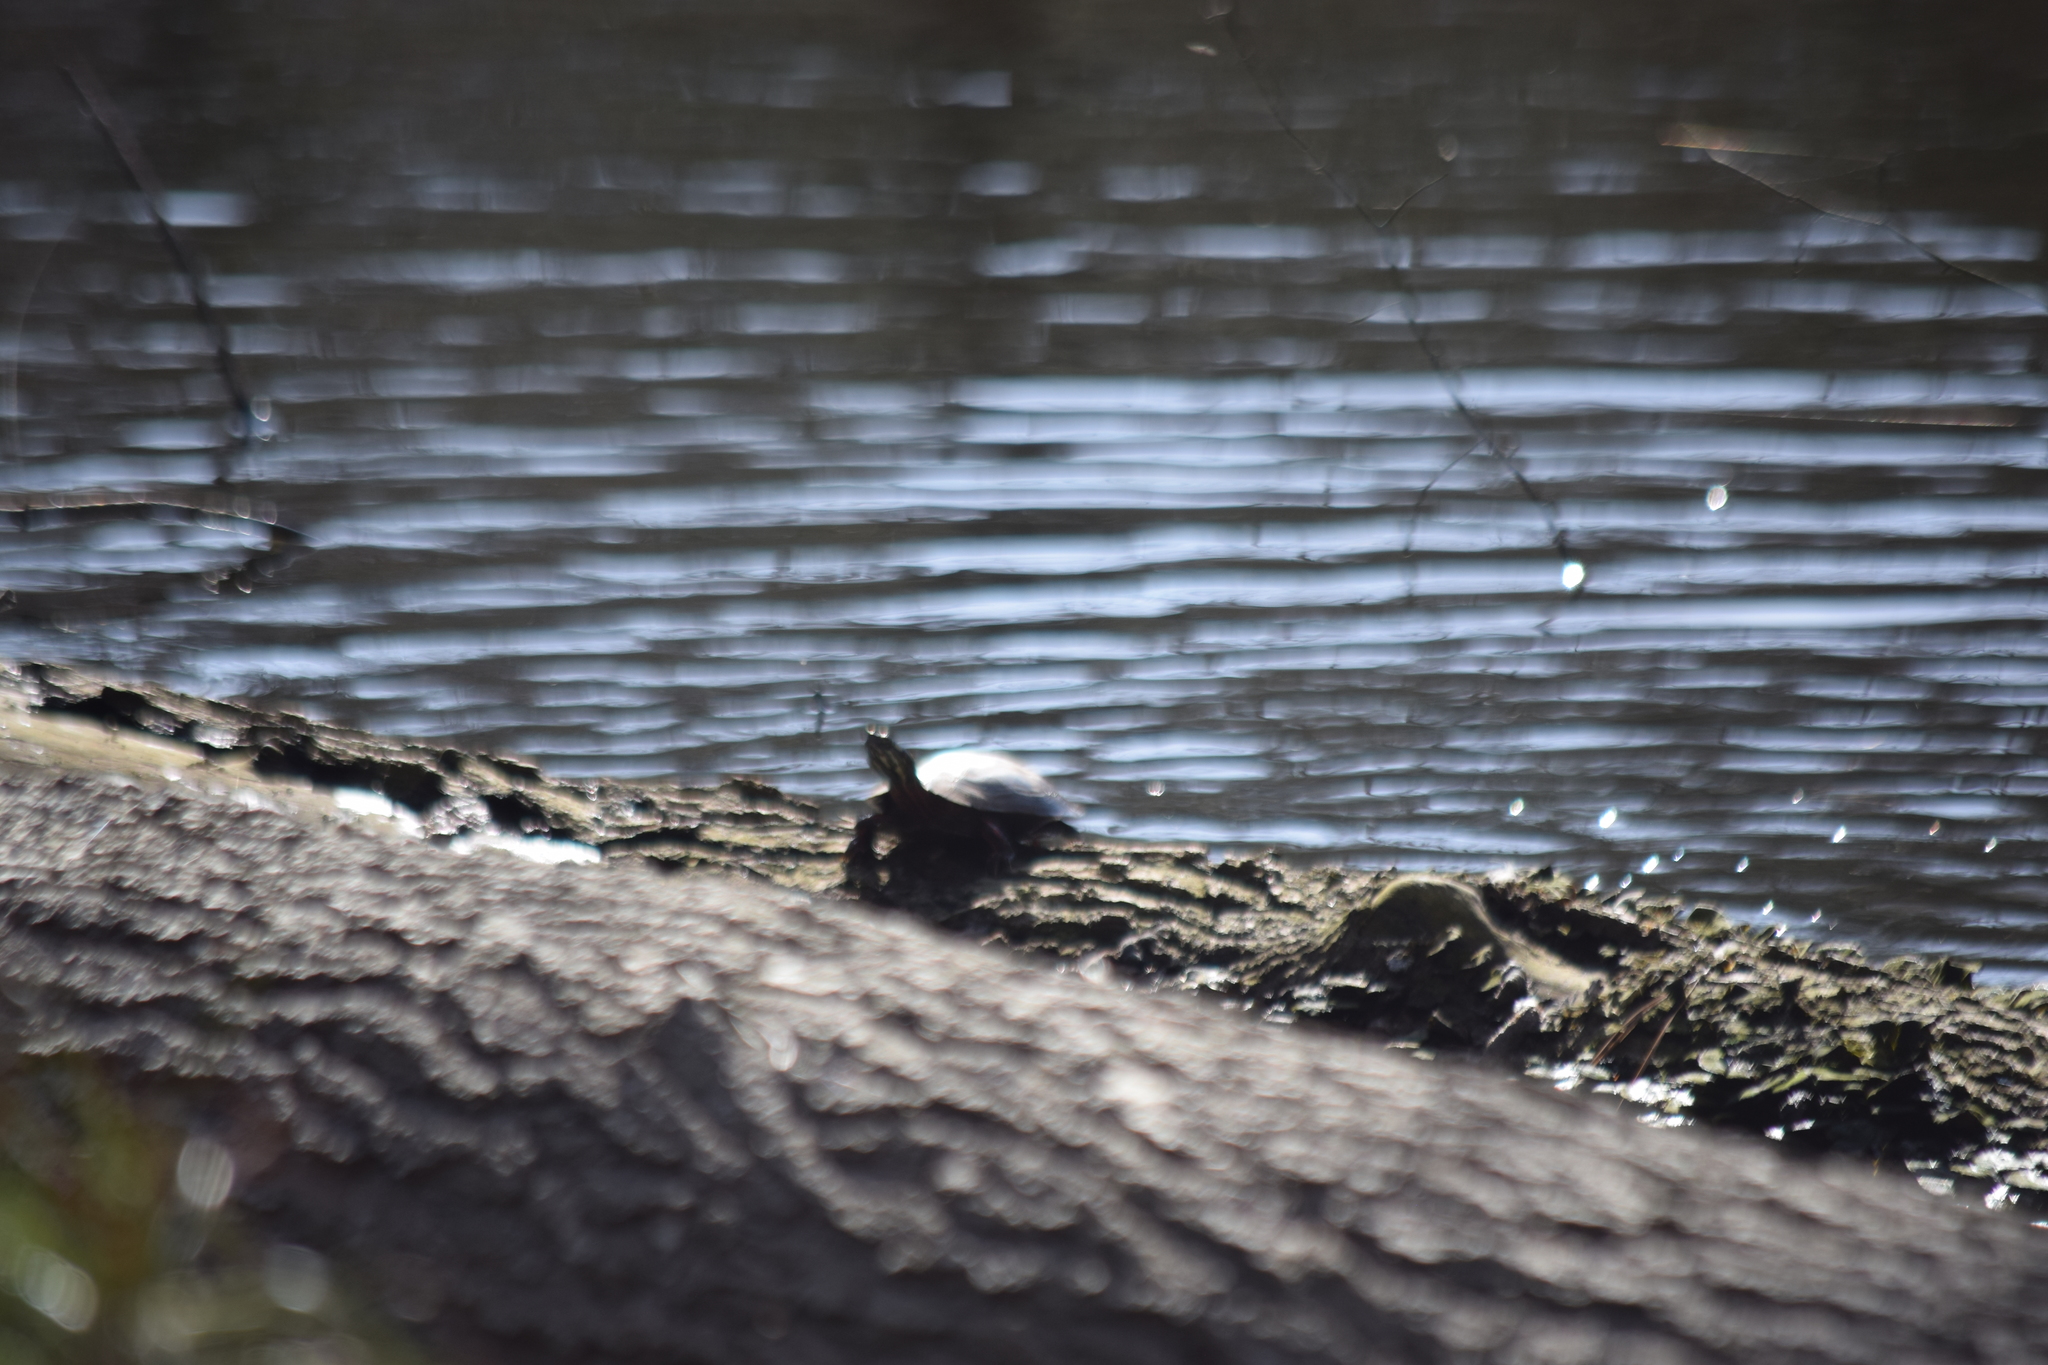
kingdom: Animalia
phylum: Chordata
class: Testudines
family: Emydidae
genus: Chrysemys
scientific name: Chrysemys picta
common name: Painted turtle
